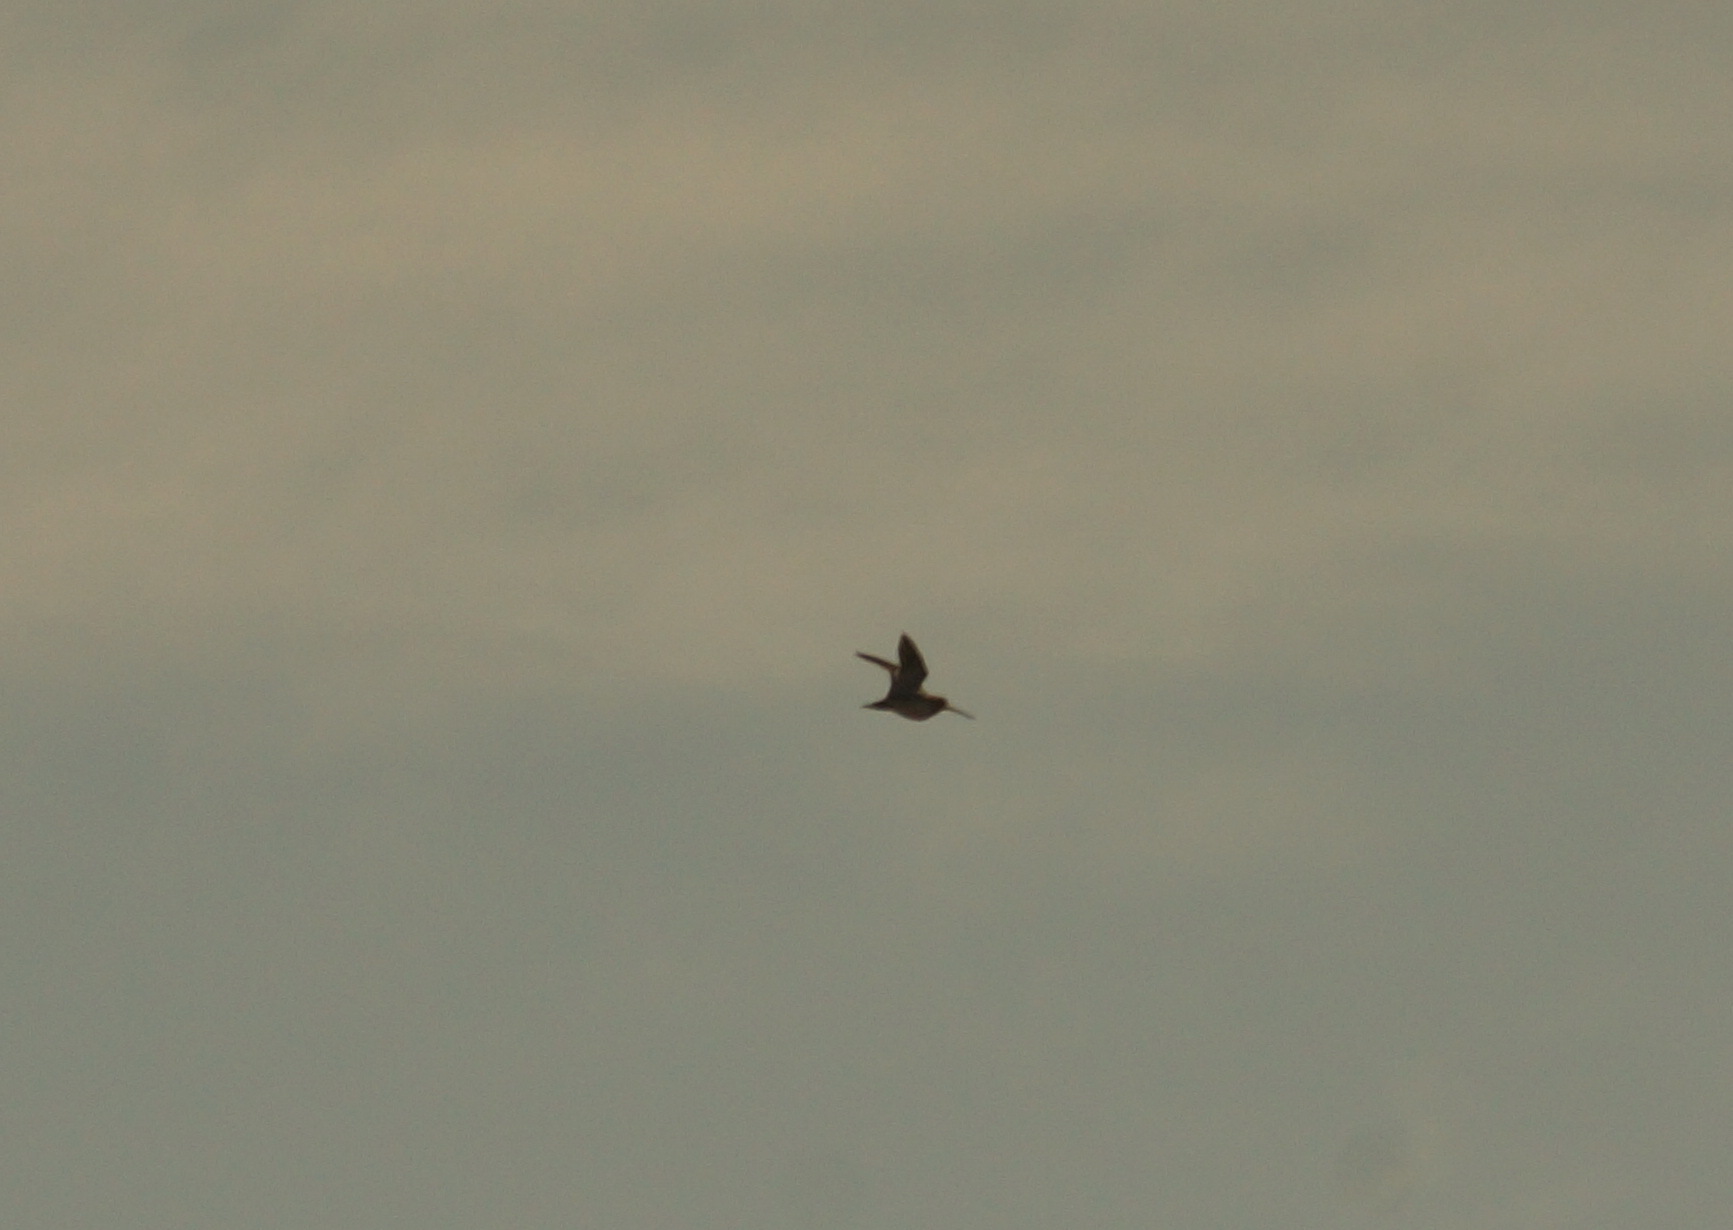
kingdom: Animalia
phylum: Chordata
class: Aves
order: Charadriiformes
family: Scolopacidae
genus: Gallinago
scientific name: Gallinago gallinago
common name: Common snipe
